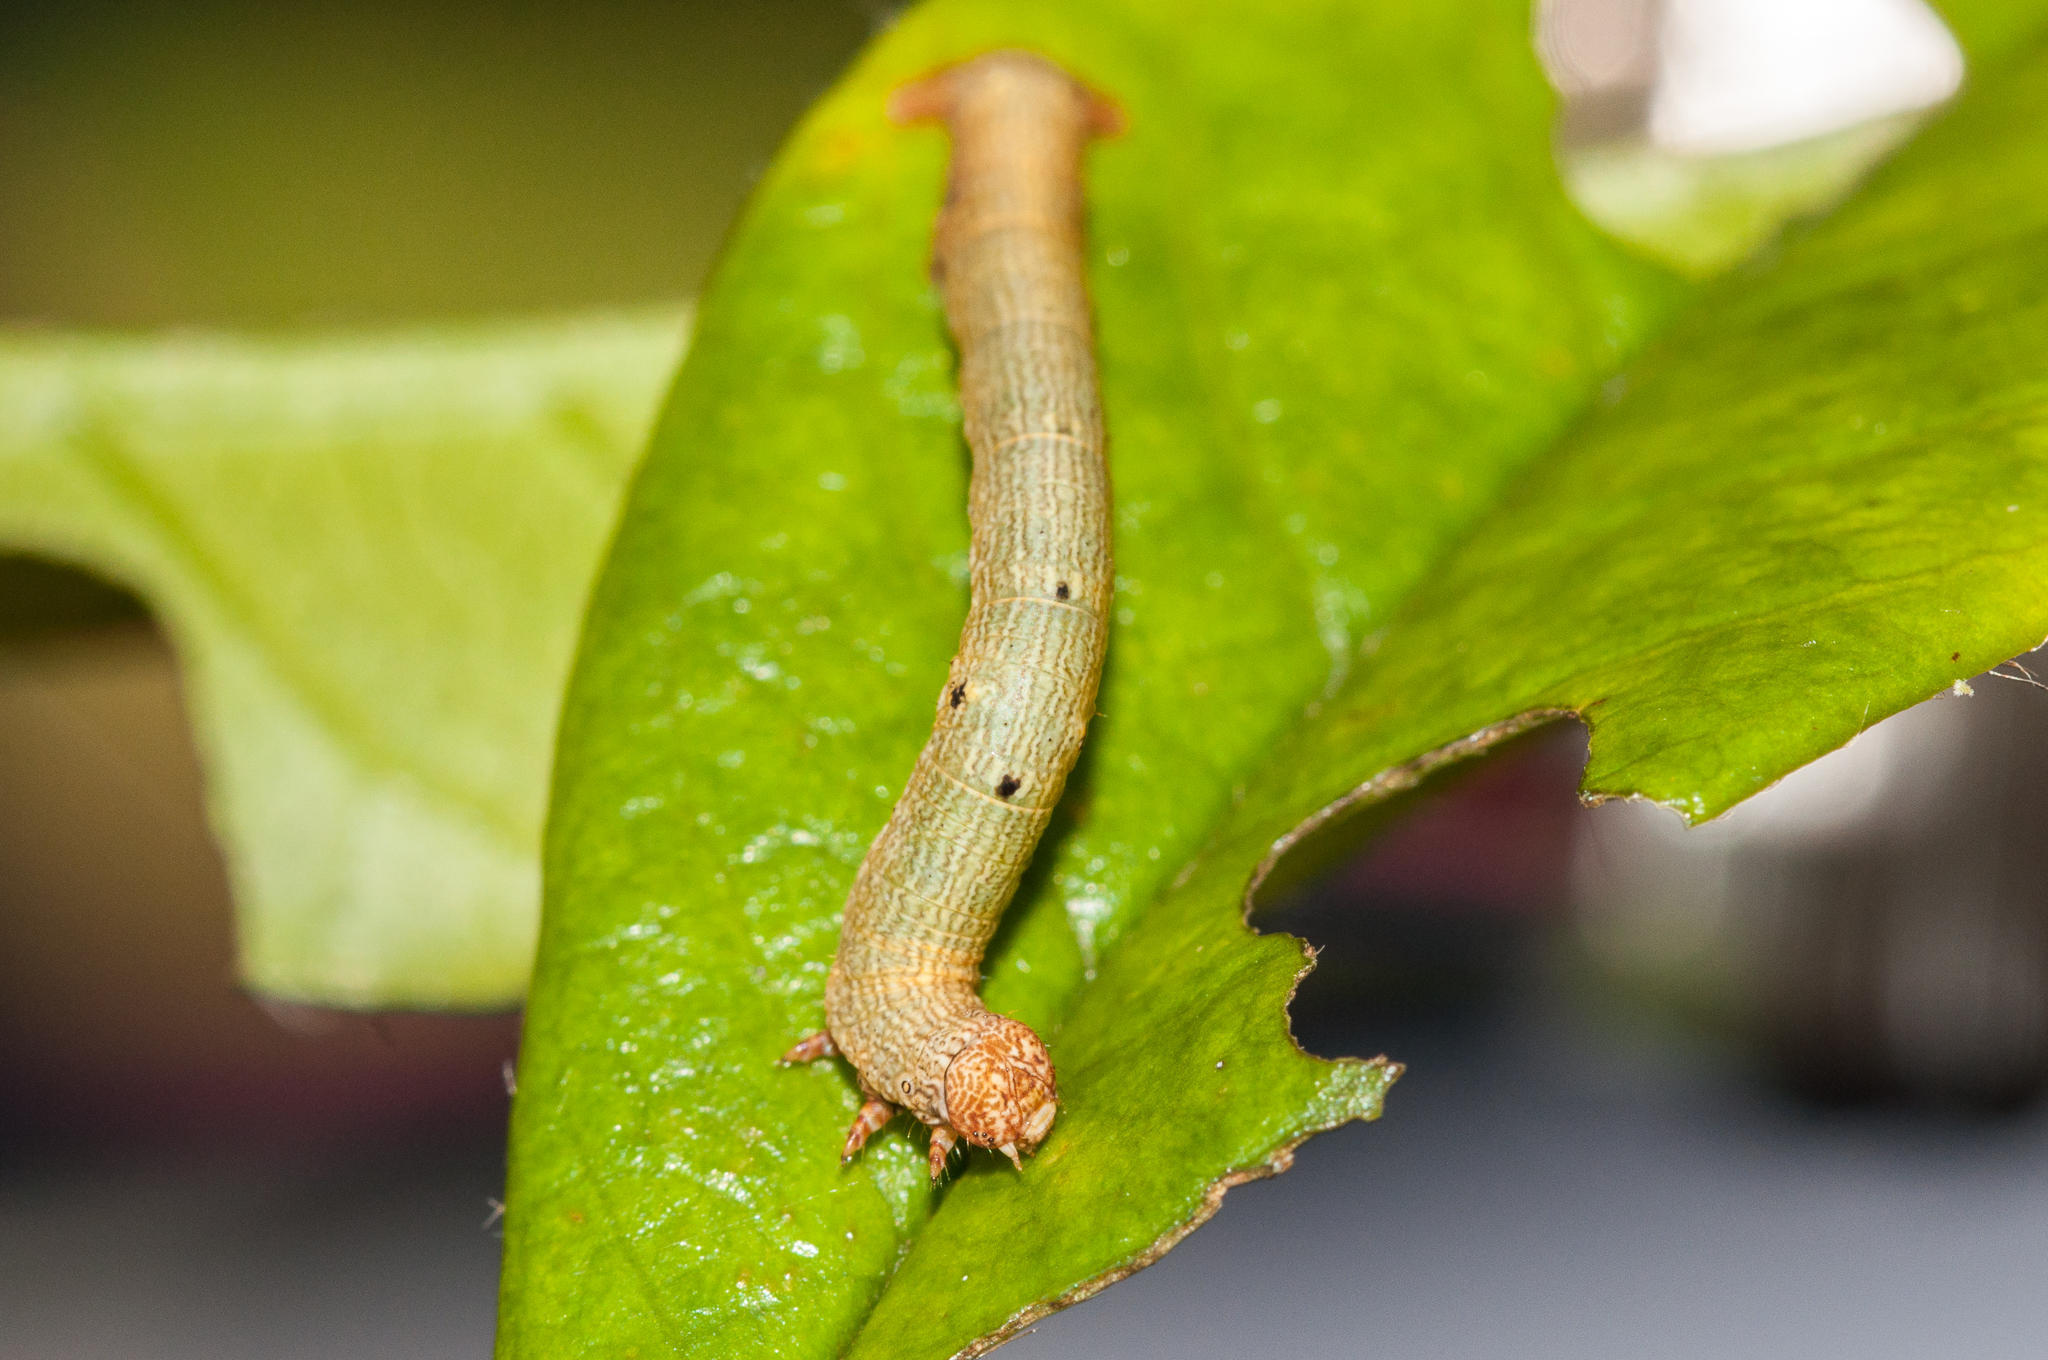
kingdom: Animalia
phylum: Arthropoda
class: Insecta
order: Lepidoptera
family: Geometridae
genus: Cleora
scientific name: Cleora acaciaria
